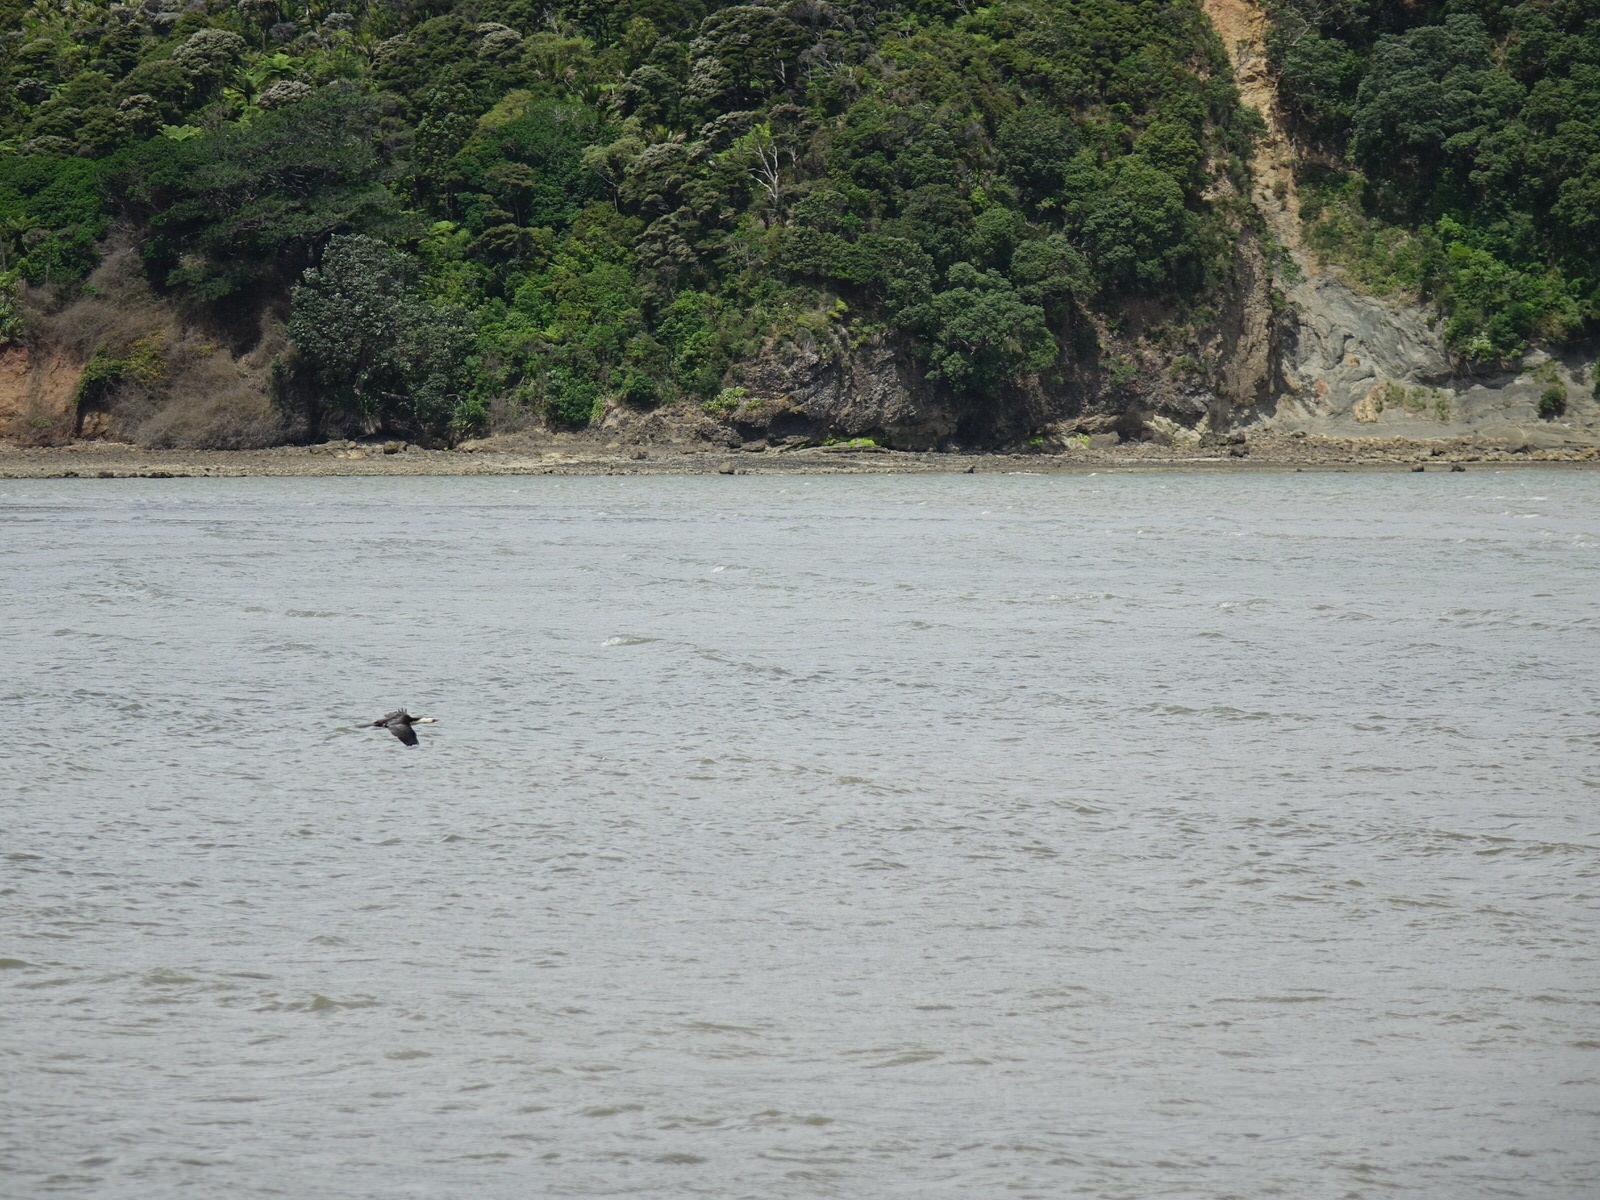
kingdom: Animalia
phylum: Chordata
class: Aves
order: Suliformes
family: Phalacrocoracidae
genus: Microcarbo
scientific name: Microcarbo melanoleucos
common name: Little pied cormorant
